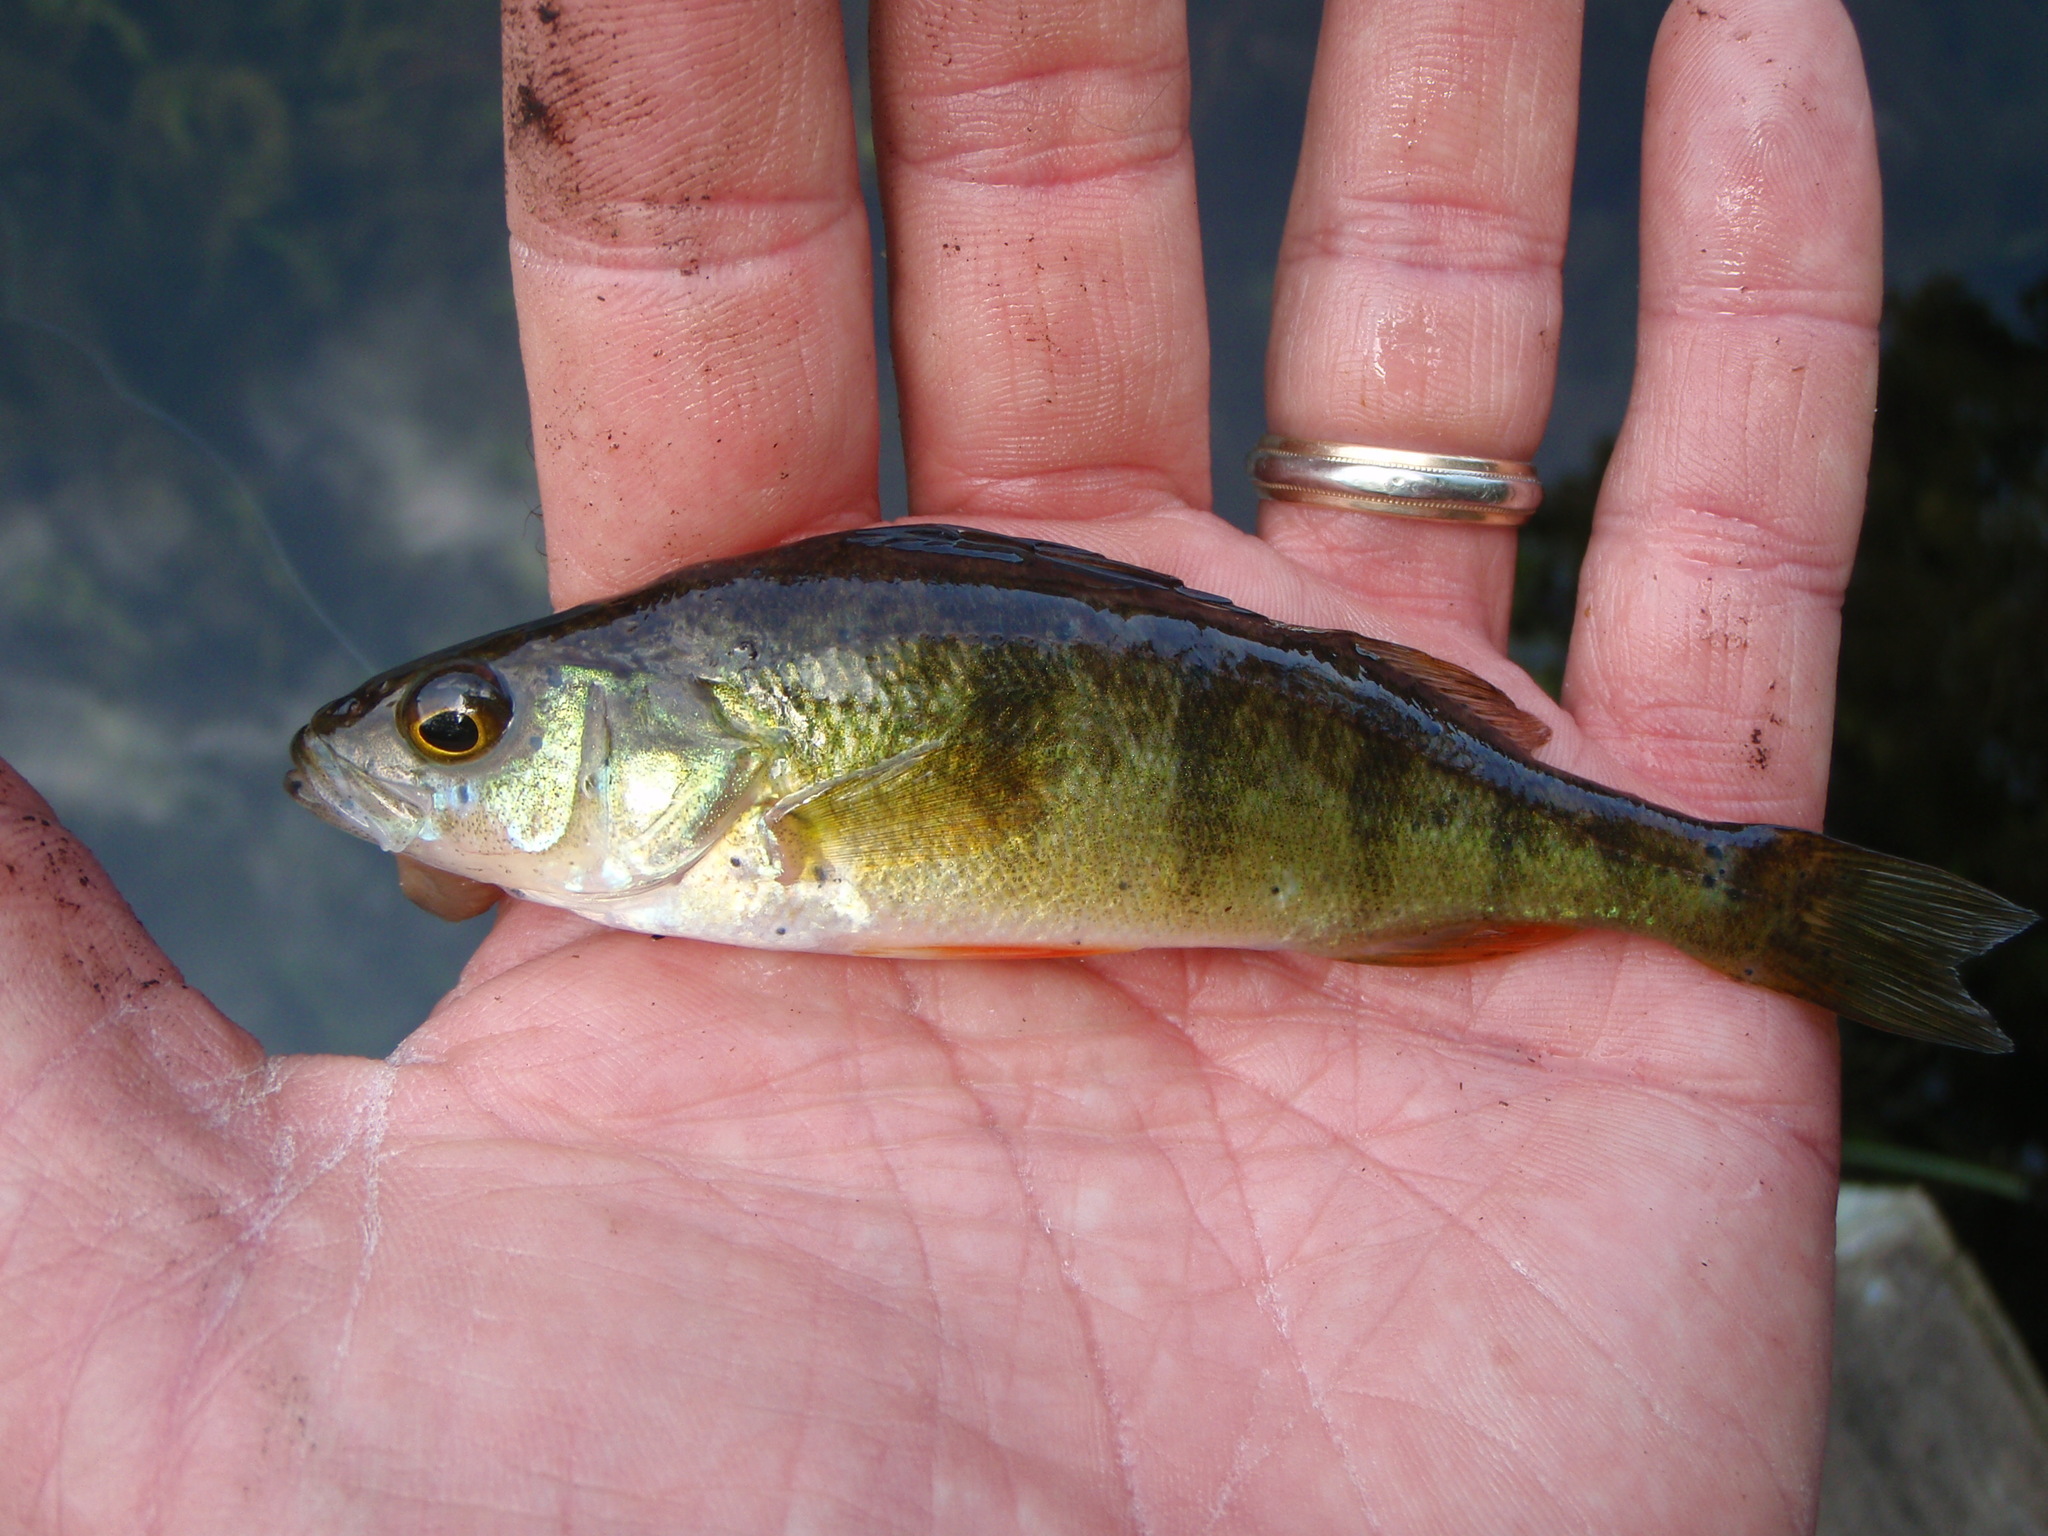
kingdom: Animalia
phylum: Chordata
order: Perciformes
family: Percidae
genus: Perca
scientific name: Perca flavescens
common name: Yellow perch
